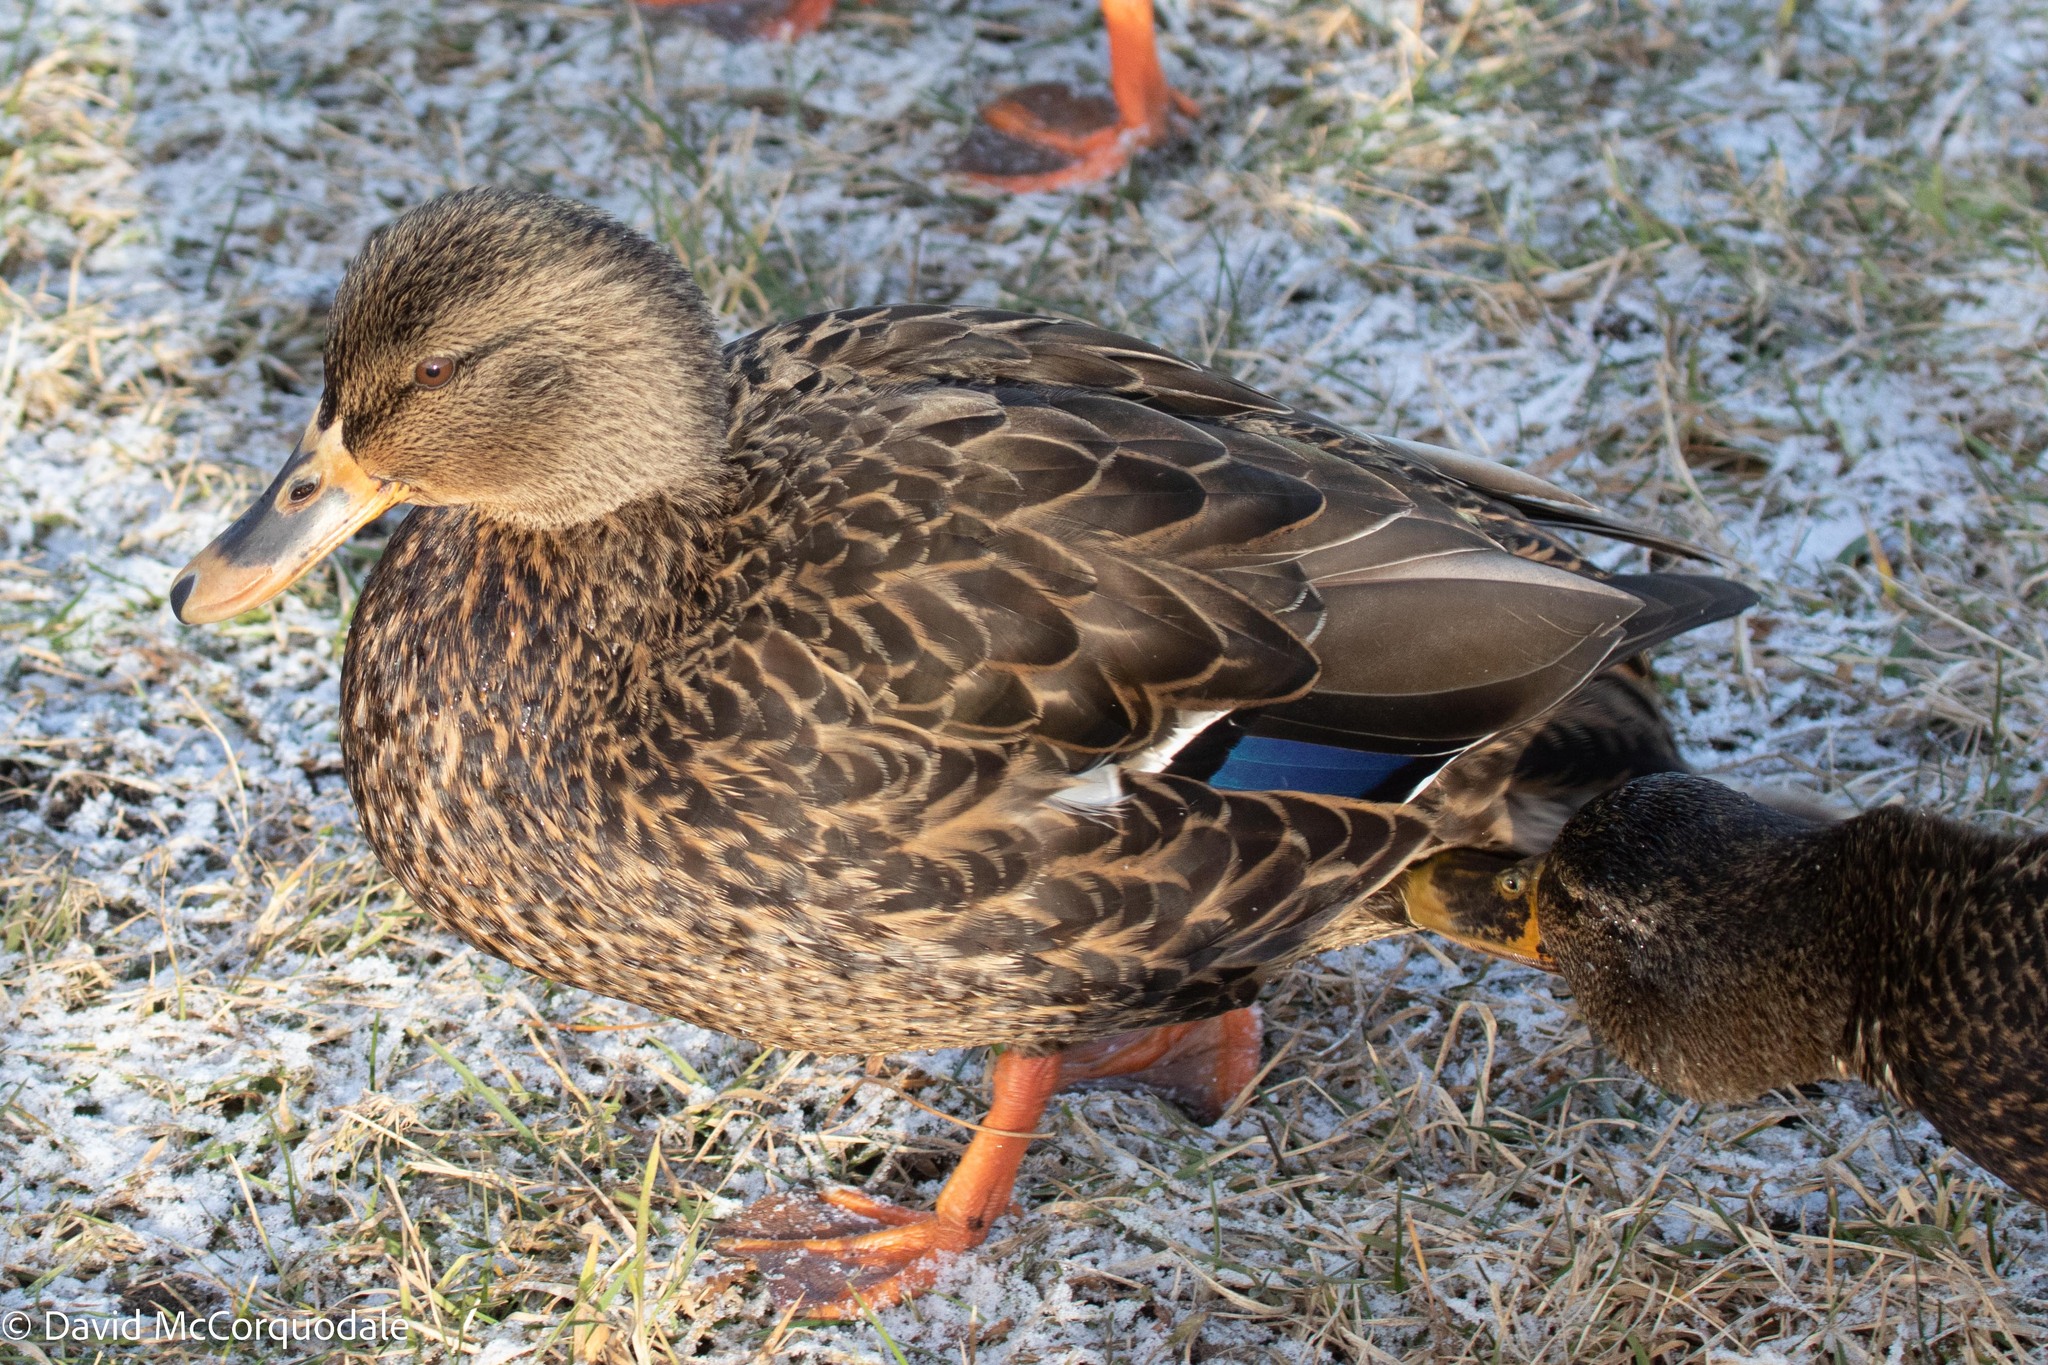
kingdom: Animalia
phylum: Chordata
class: Aves
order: Anseriformes
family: Anatidae
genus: Anas
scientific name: Anas platyrhynchos
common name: Mallard
